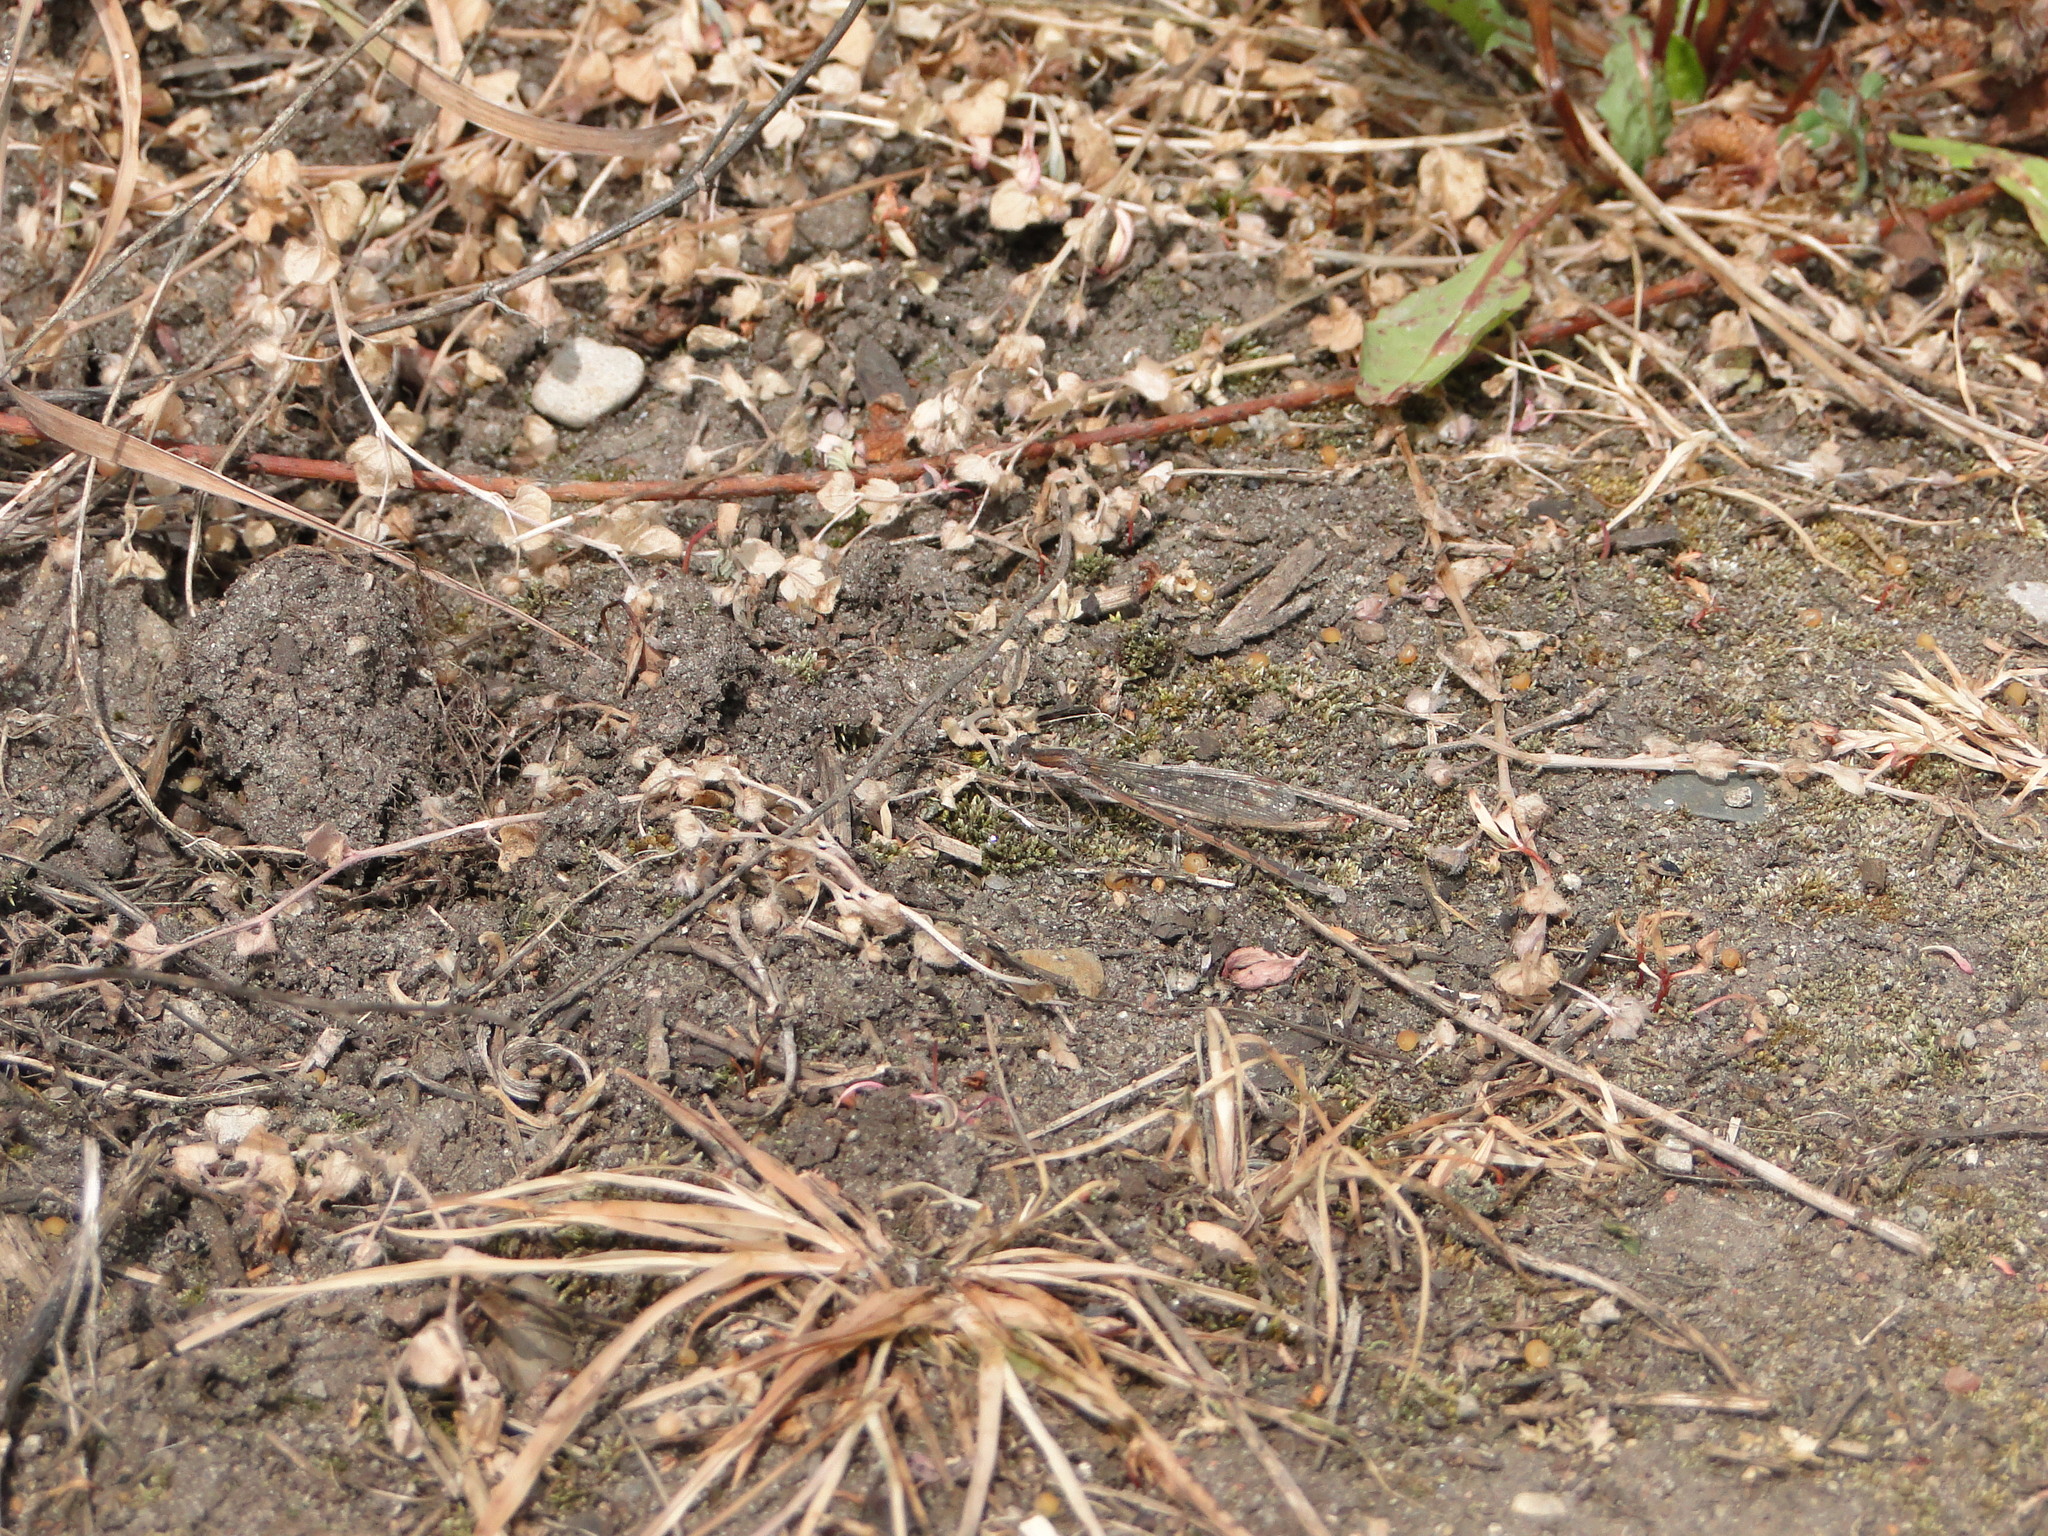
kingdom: Animalia
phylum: Arthropoda
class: Insecta
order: Odonata
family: Lestidae
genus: Sympecma
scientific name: Sympecma fusca
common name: Common winter damsel
